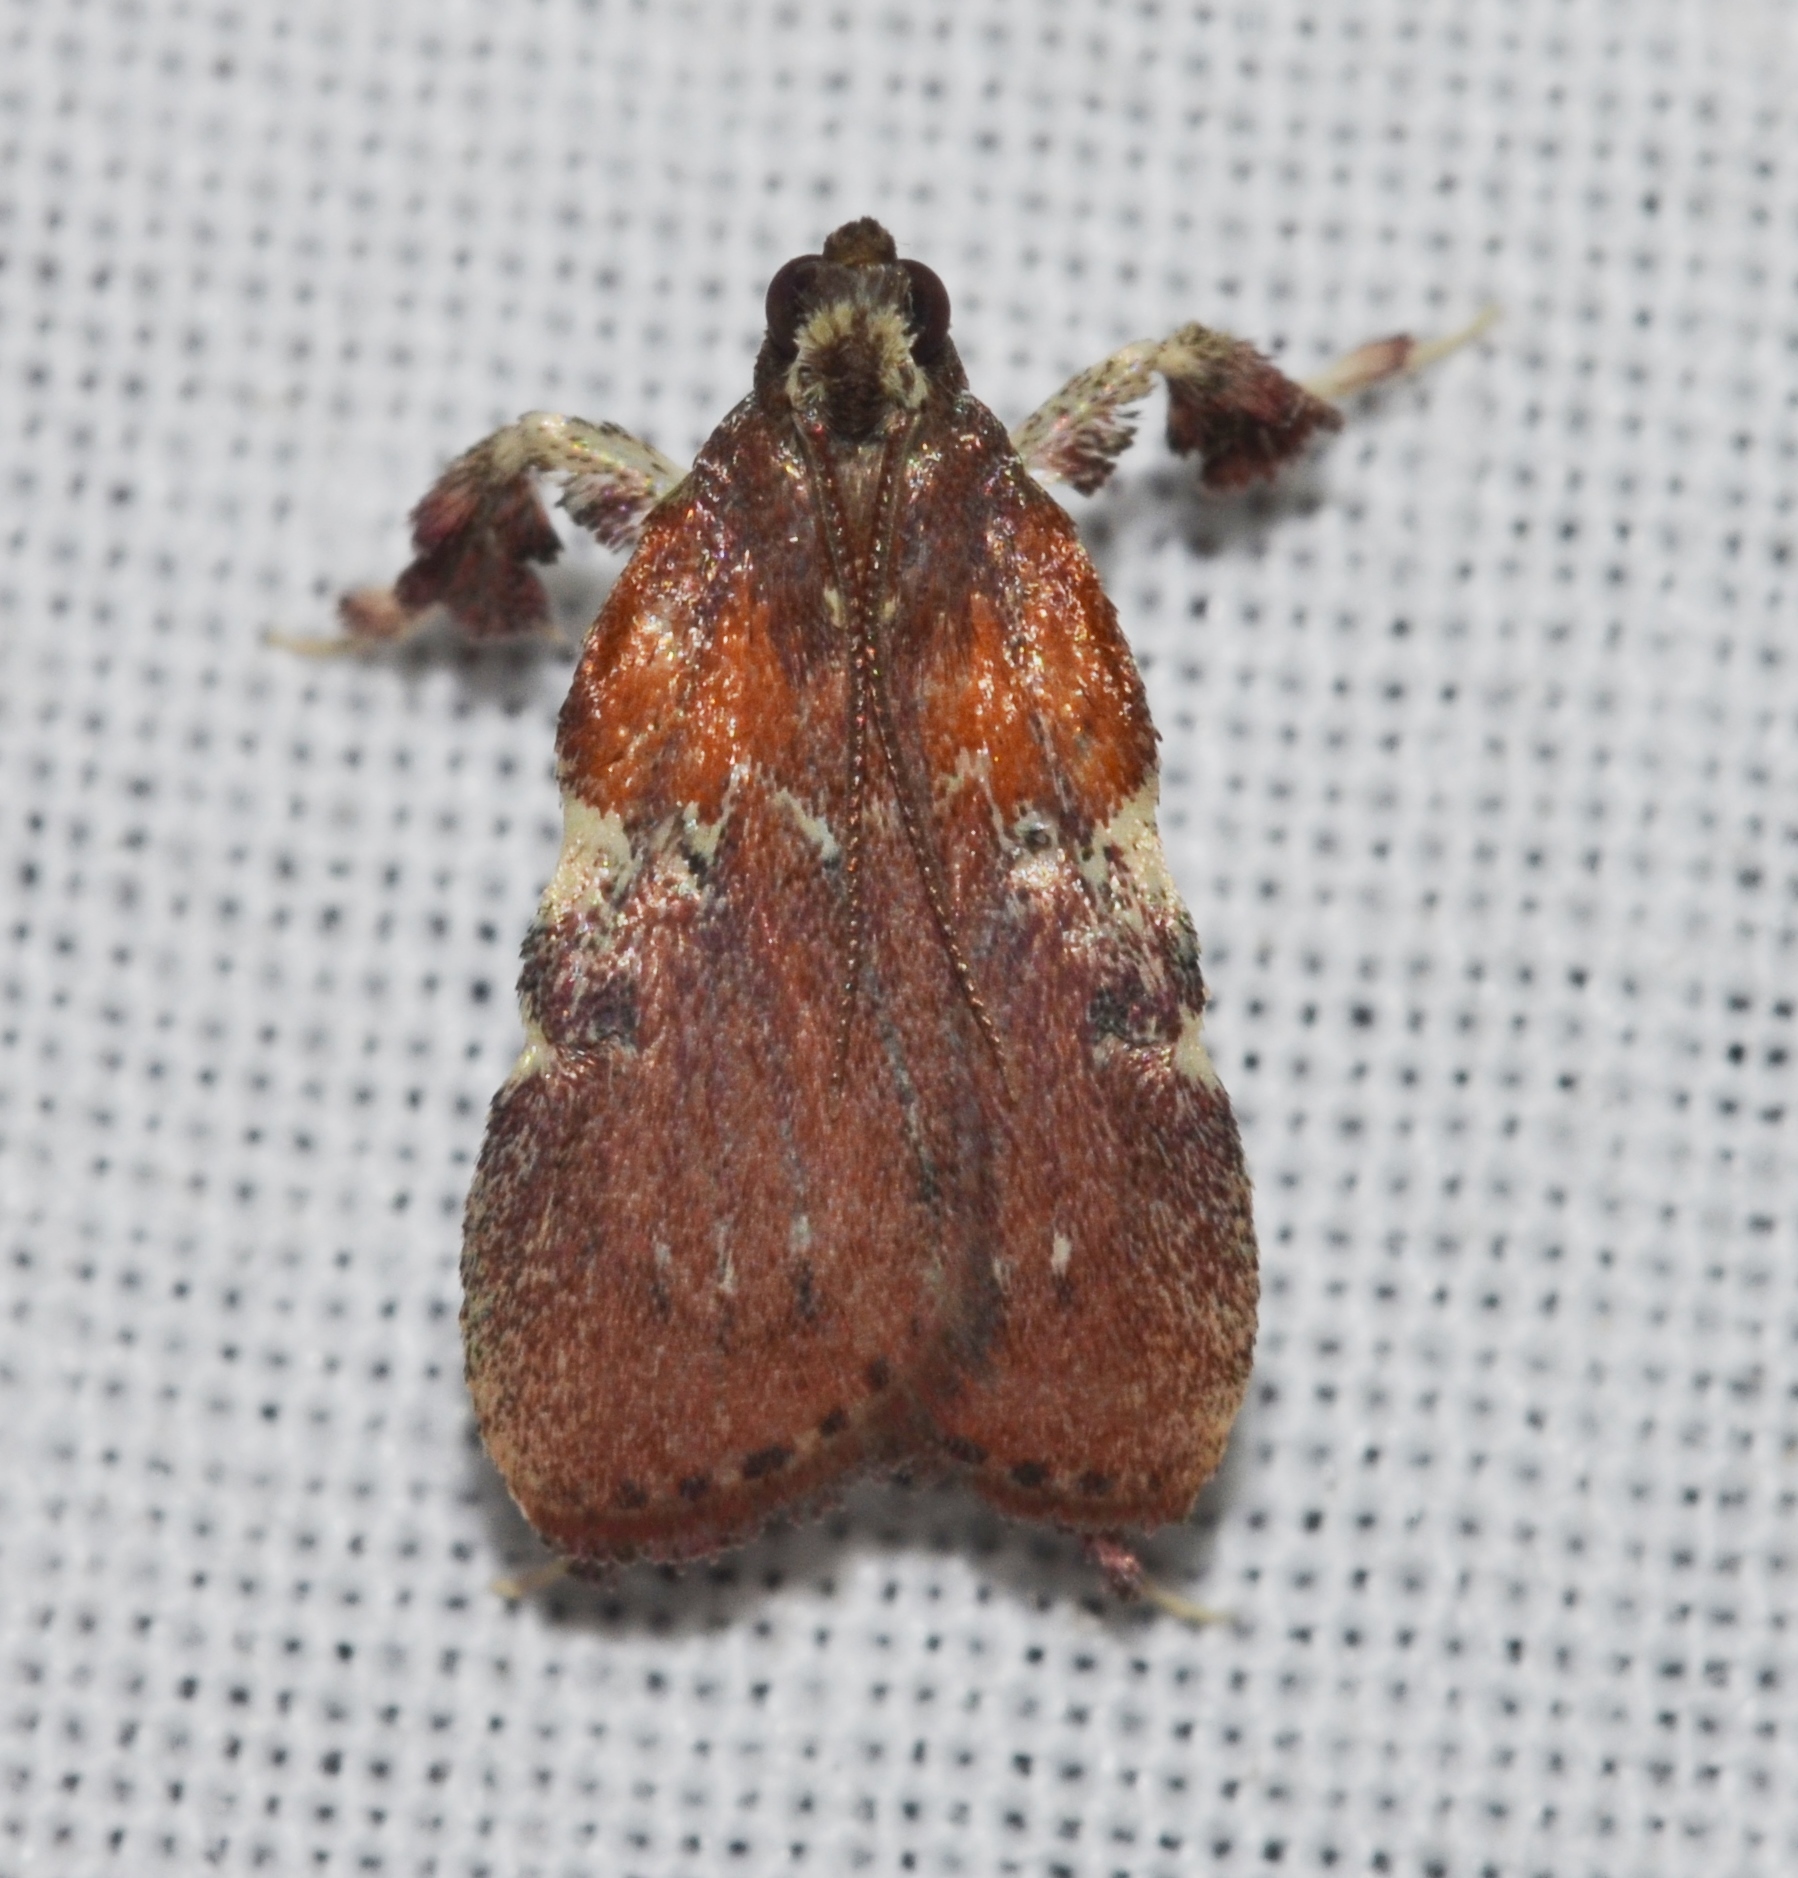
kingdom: Animalia
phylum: Arthropoda
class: Insecta
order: Lepidoptera
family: Pyralidae
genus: Galasa
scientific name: Galasa nigrinodis
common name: Boxwood leaftier moth
